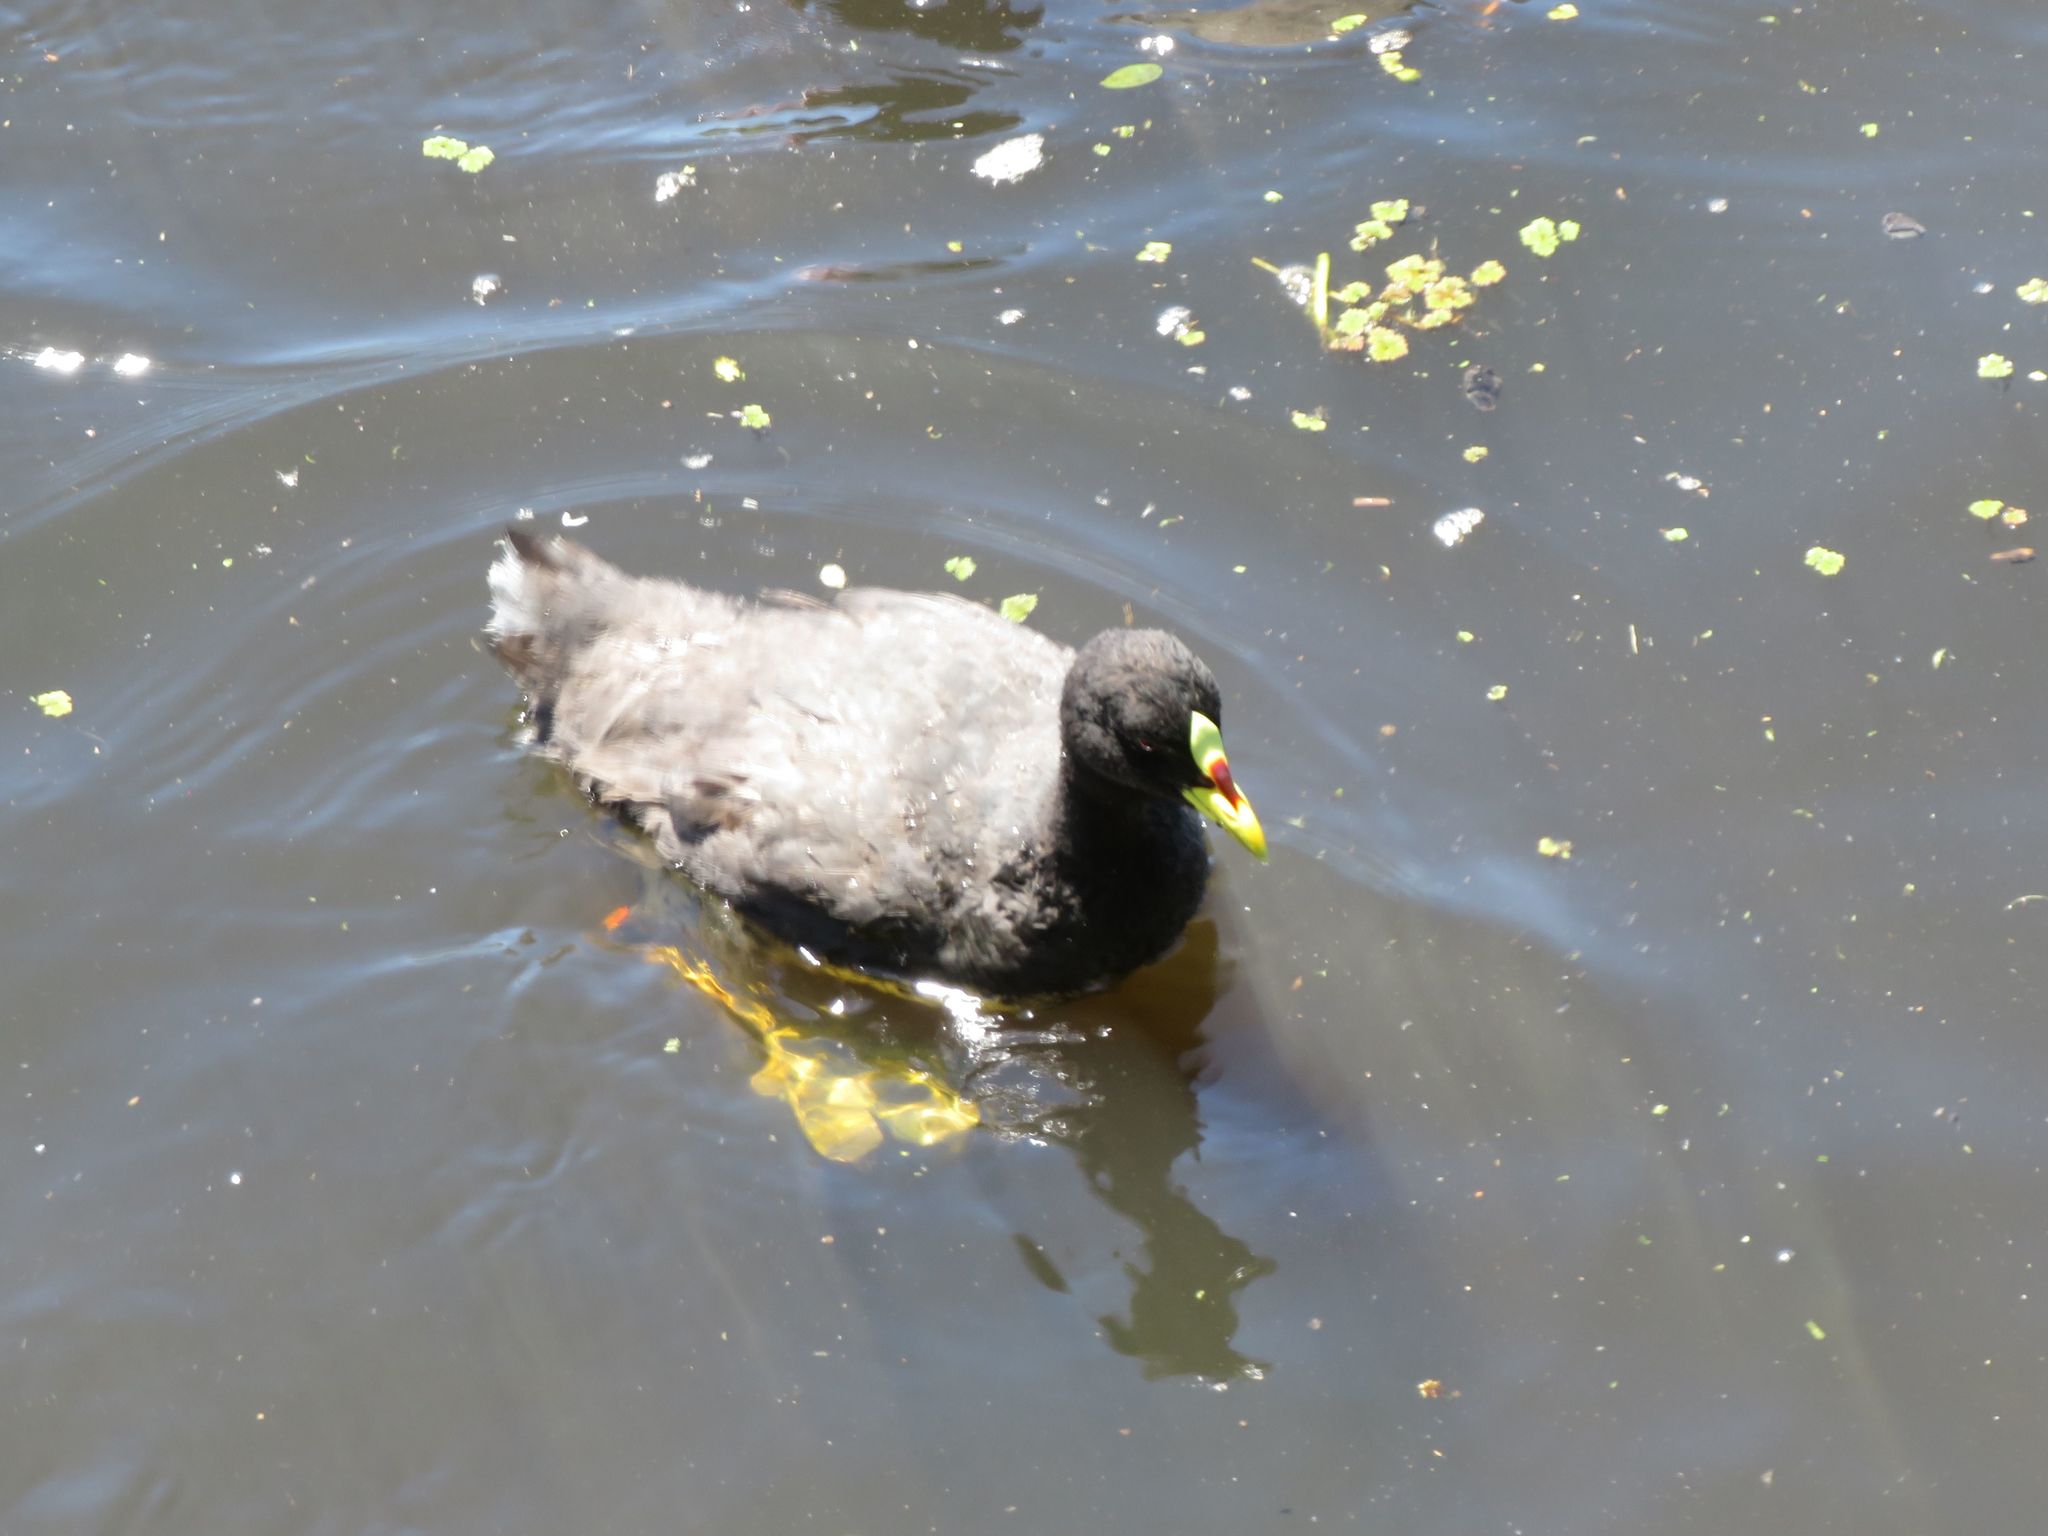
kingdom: Animalia
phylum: Chordata
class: Aves
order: Gruiformes
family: Rallidae
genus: Fulica
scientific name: Fulica armillata
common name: Red-gartered coot
